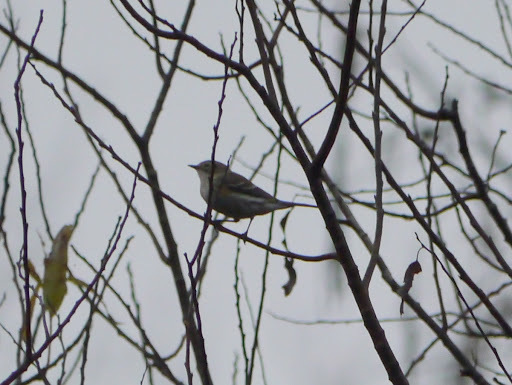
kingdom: Animalia
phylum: Chordata
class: Aves
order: Passeriformes
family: Parulidae
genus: Setophaga
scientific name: Setophaga coronata
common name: Myrtle warbler
